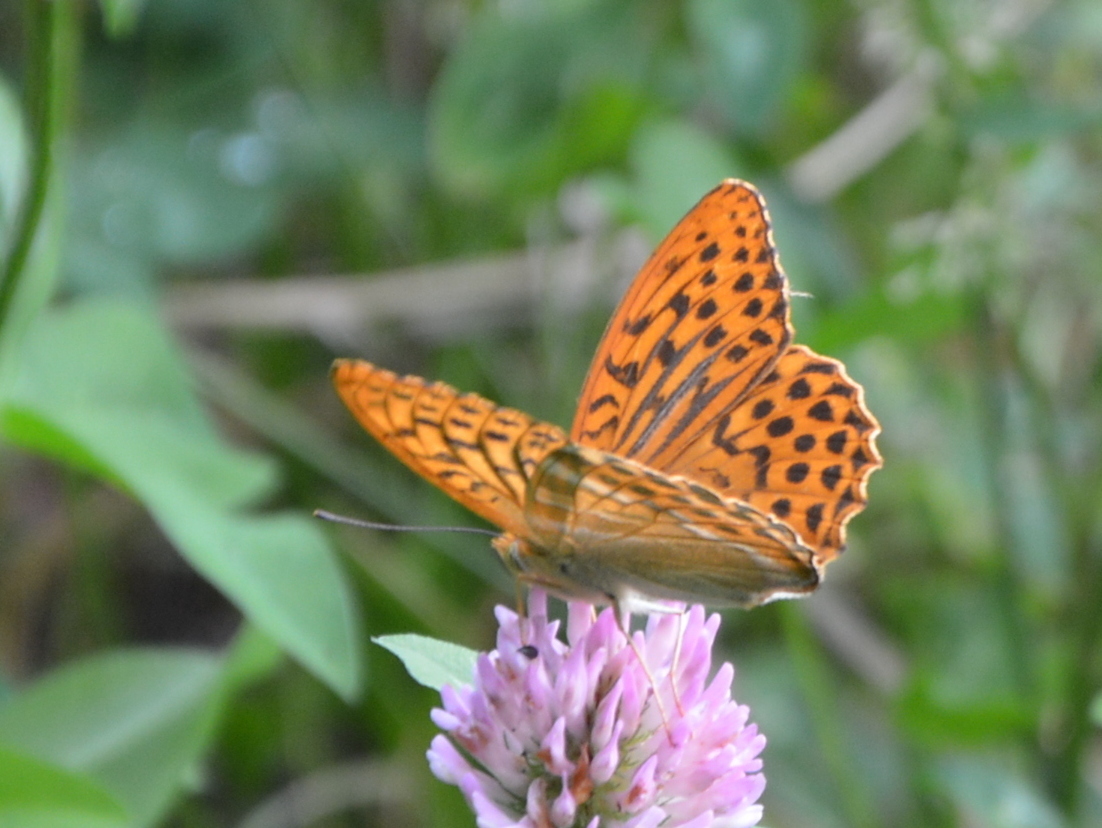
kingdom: Animalia
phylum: Arthropoda
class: Insecta
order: Lepidoptera
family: Nymphalidae
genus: Argynnis
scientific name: Argynnis paphia
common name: Silver-washed fritillary
